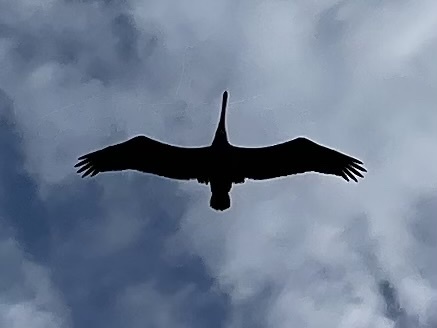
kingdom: Animalia
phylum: Chordata
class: Aves
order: Pelecaniformes
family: Pelecanidae
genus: Pelecanus
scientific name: Pelecanus occidentalis
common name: Brown pelican
